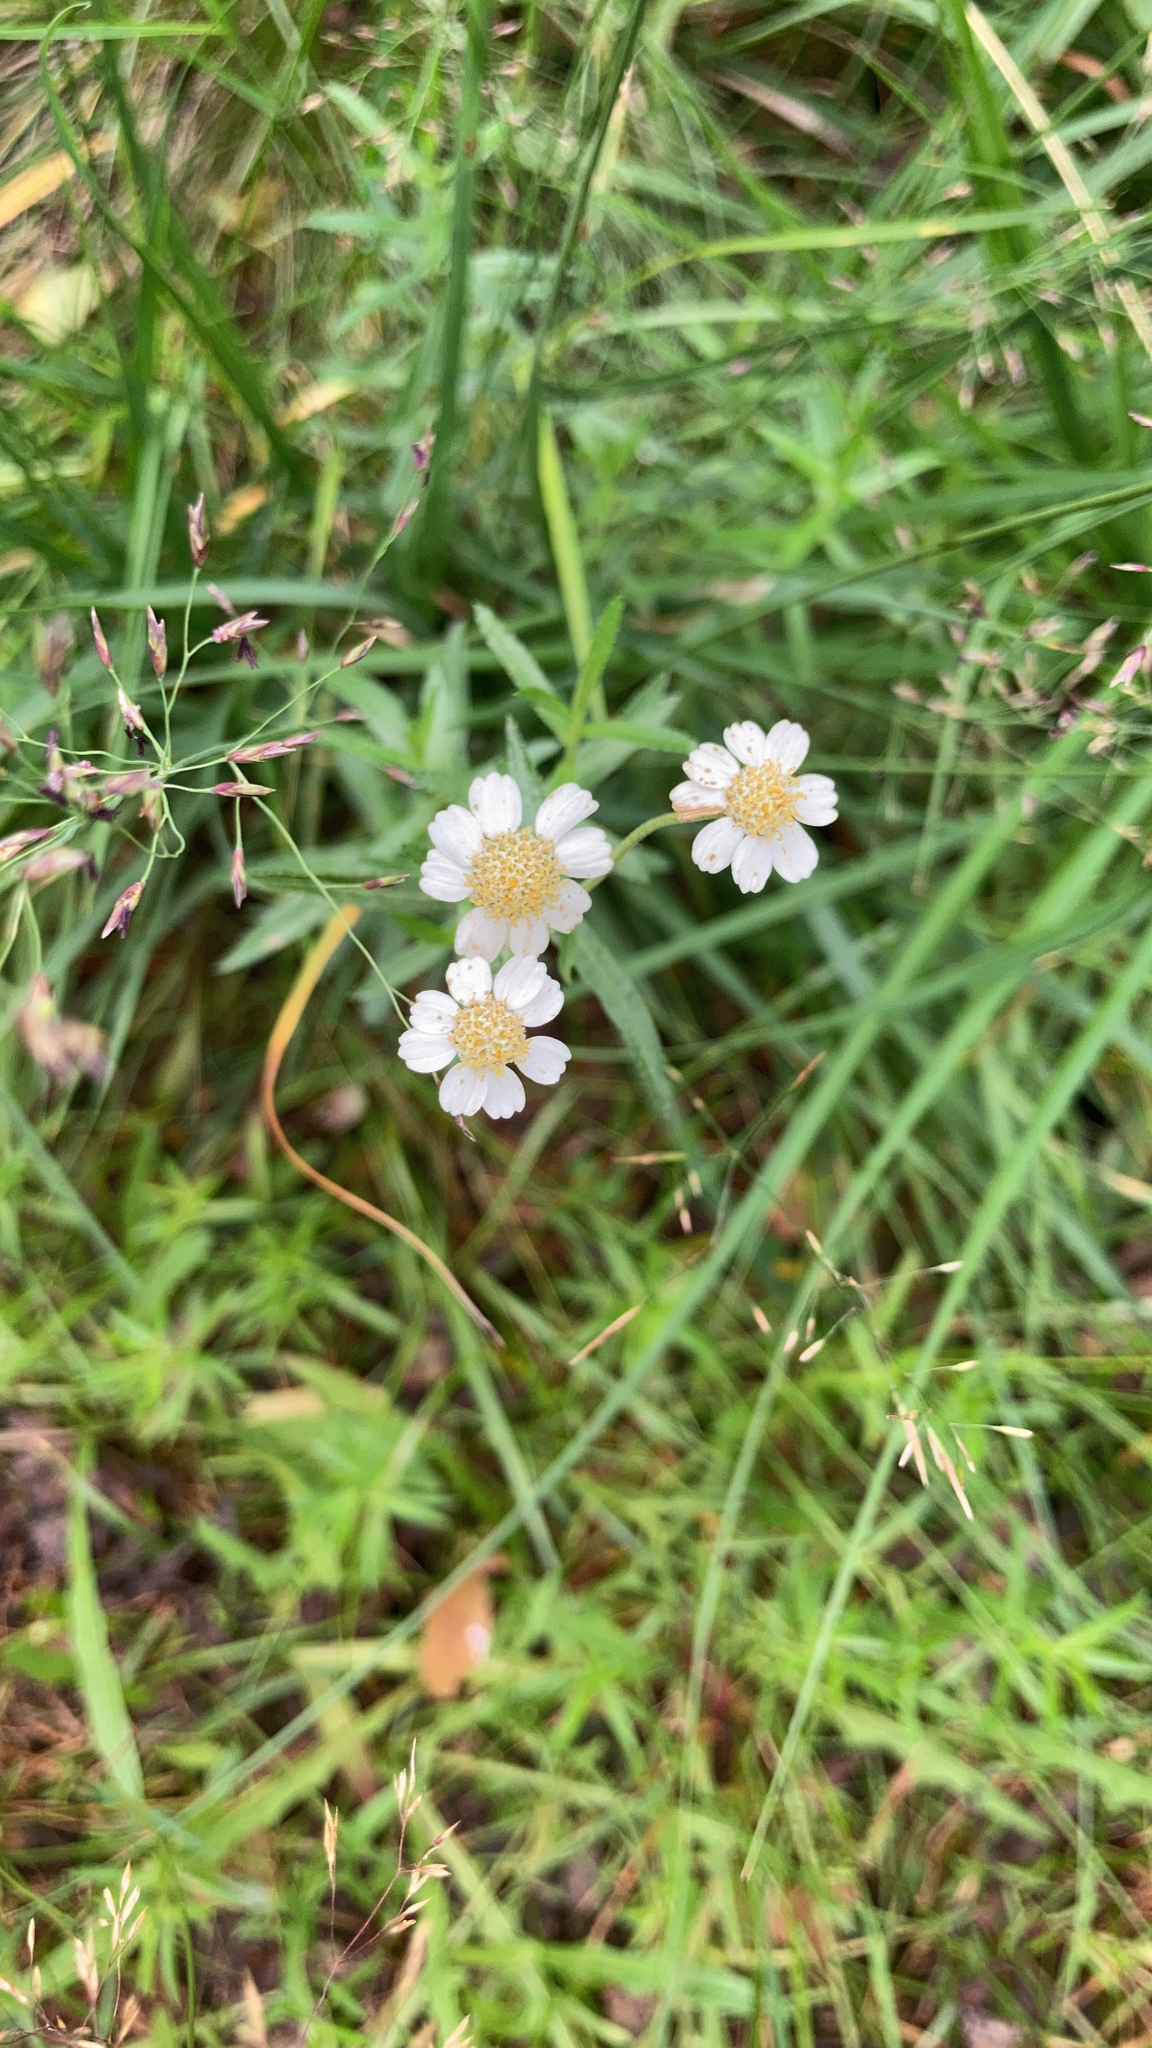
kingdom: Plantae
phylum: Tracheophyta
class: Magnoliopsida
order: Asterales
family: Asteraceae
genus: Achillea
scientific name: Achillea ptarmica
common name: Sneezeweed
